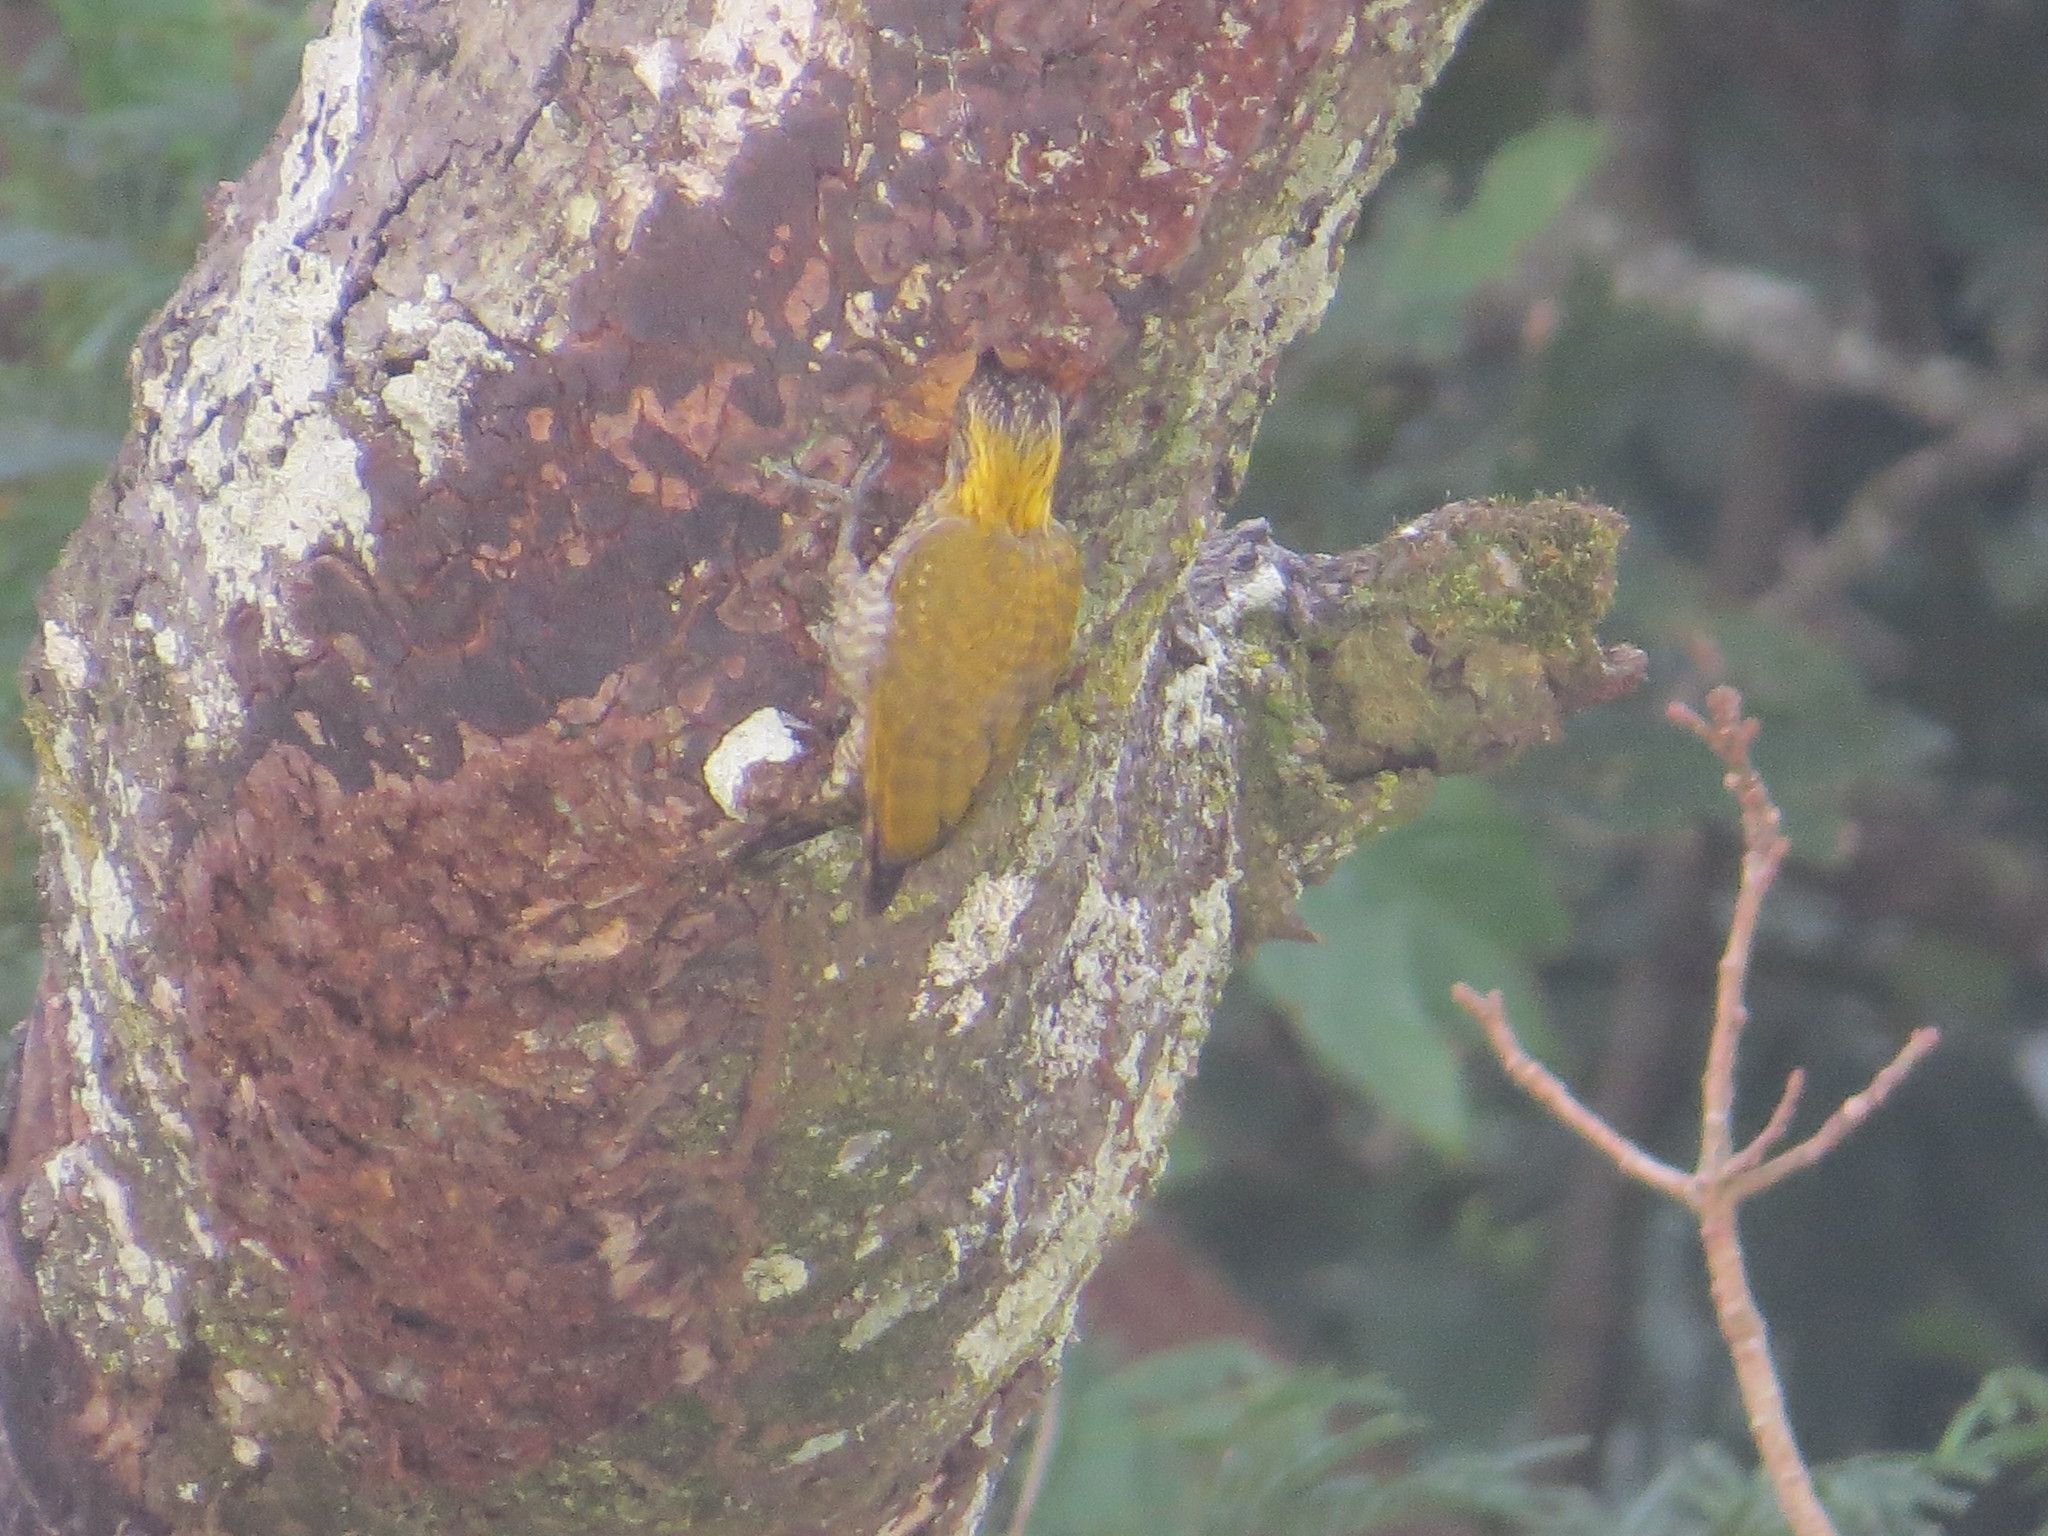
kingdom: Animalia
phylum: Chordata
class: Aves
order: Piciformes
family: Picidae
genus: Veniliornis
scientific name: Veniliornis maculifrons
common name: Yellow-eared woodpecker
